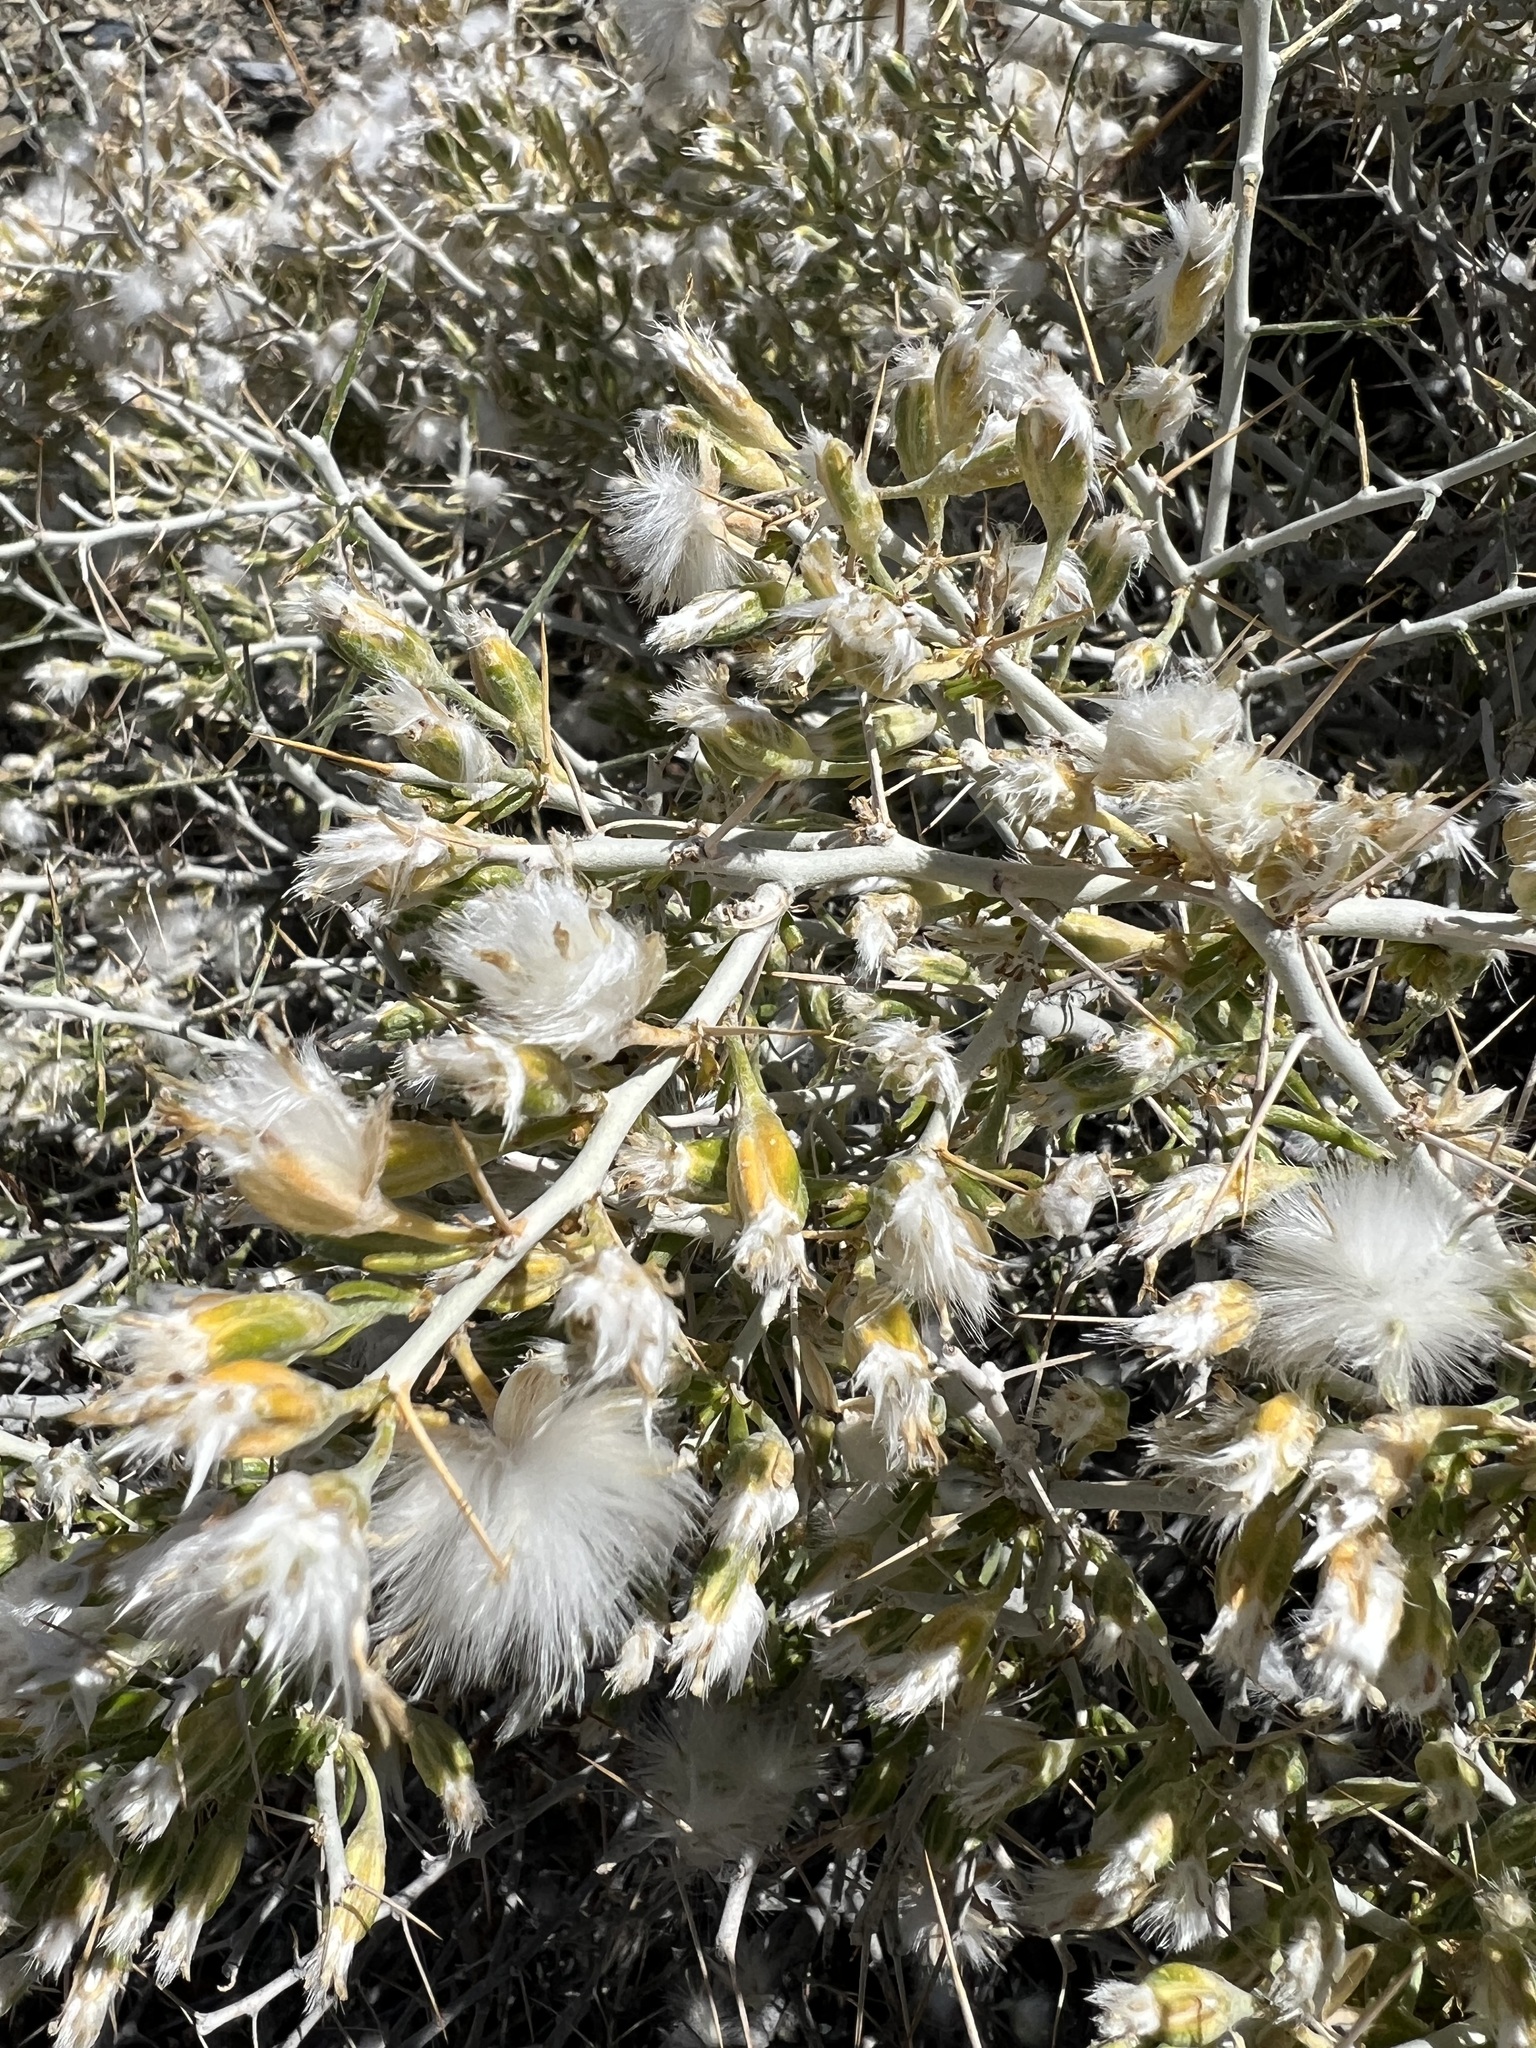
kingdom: Plantae
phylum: Tracheophyta
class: Magnoliopsida
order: Asterales
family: Asteraceae
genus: Tetradymia
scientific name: Tetradymia axillaris
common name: Long-spine horsebrush
